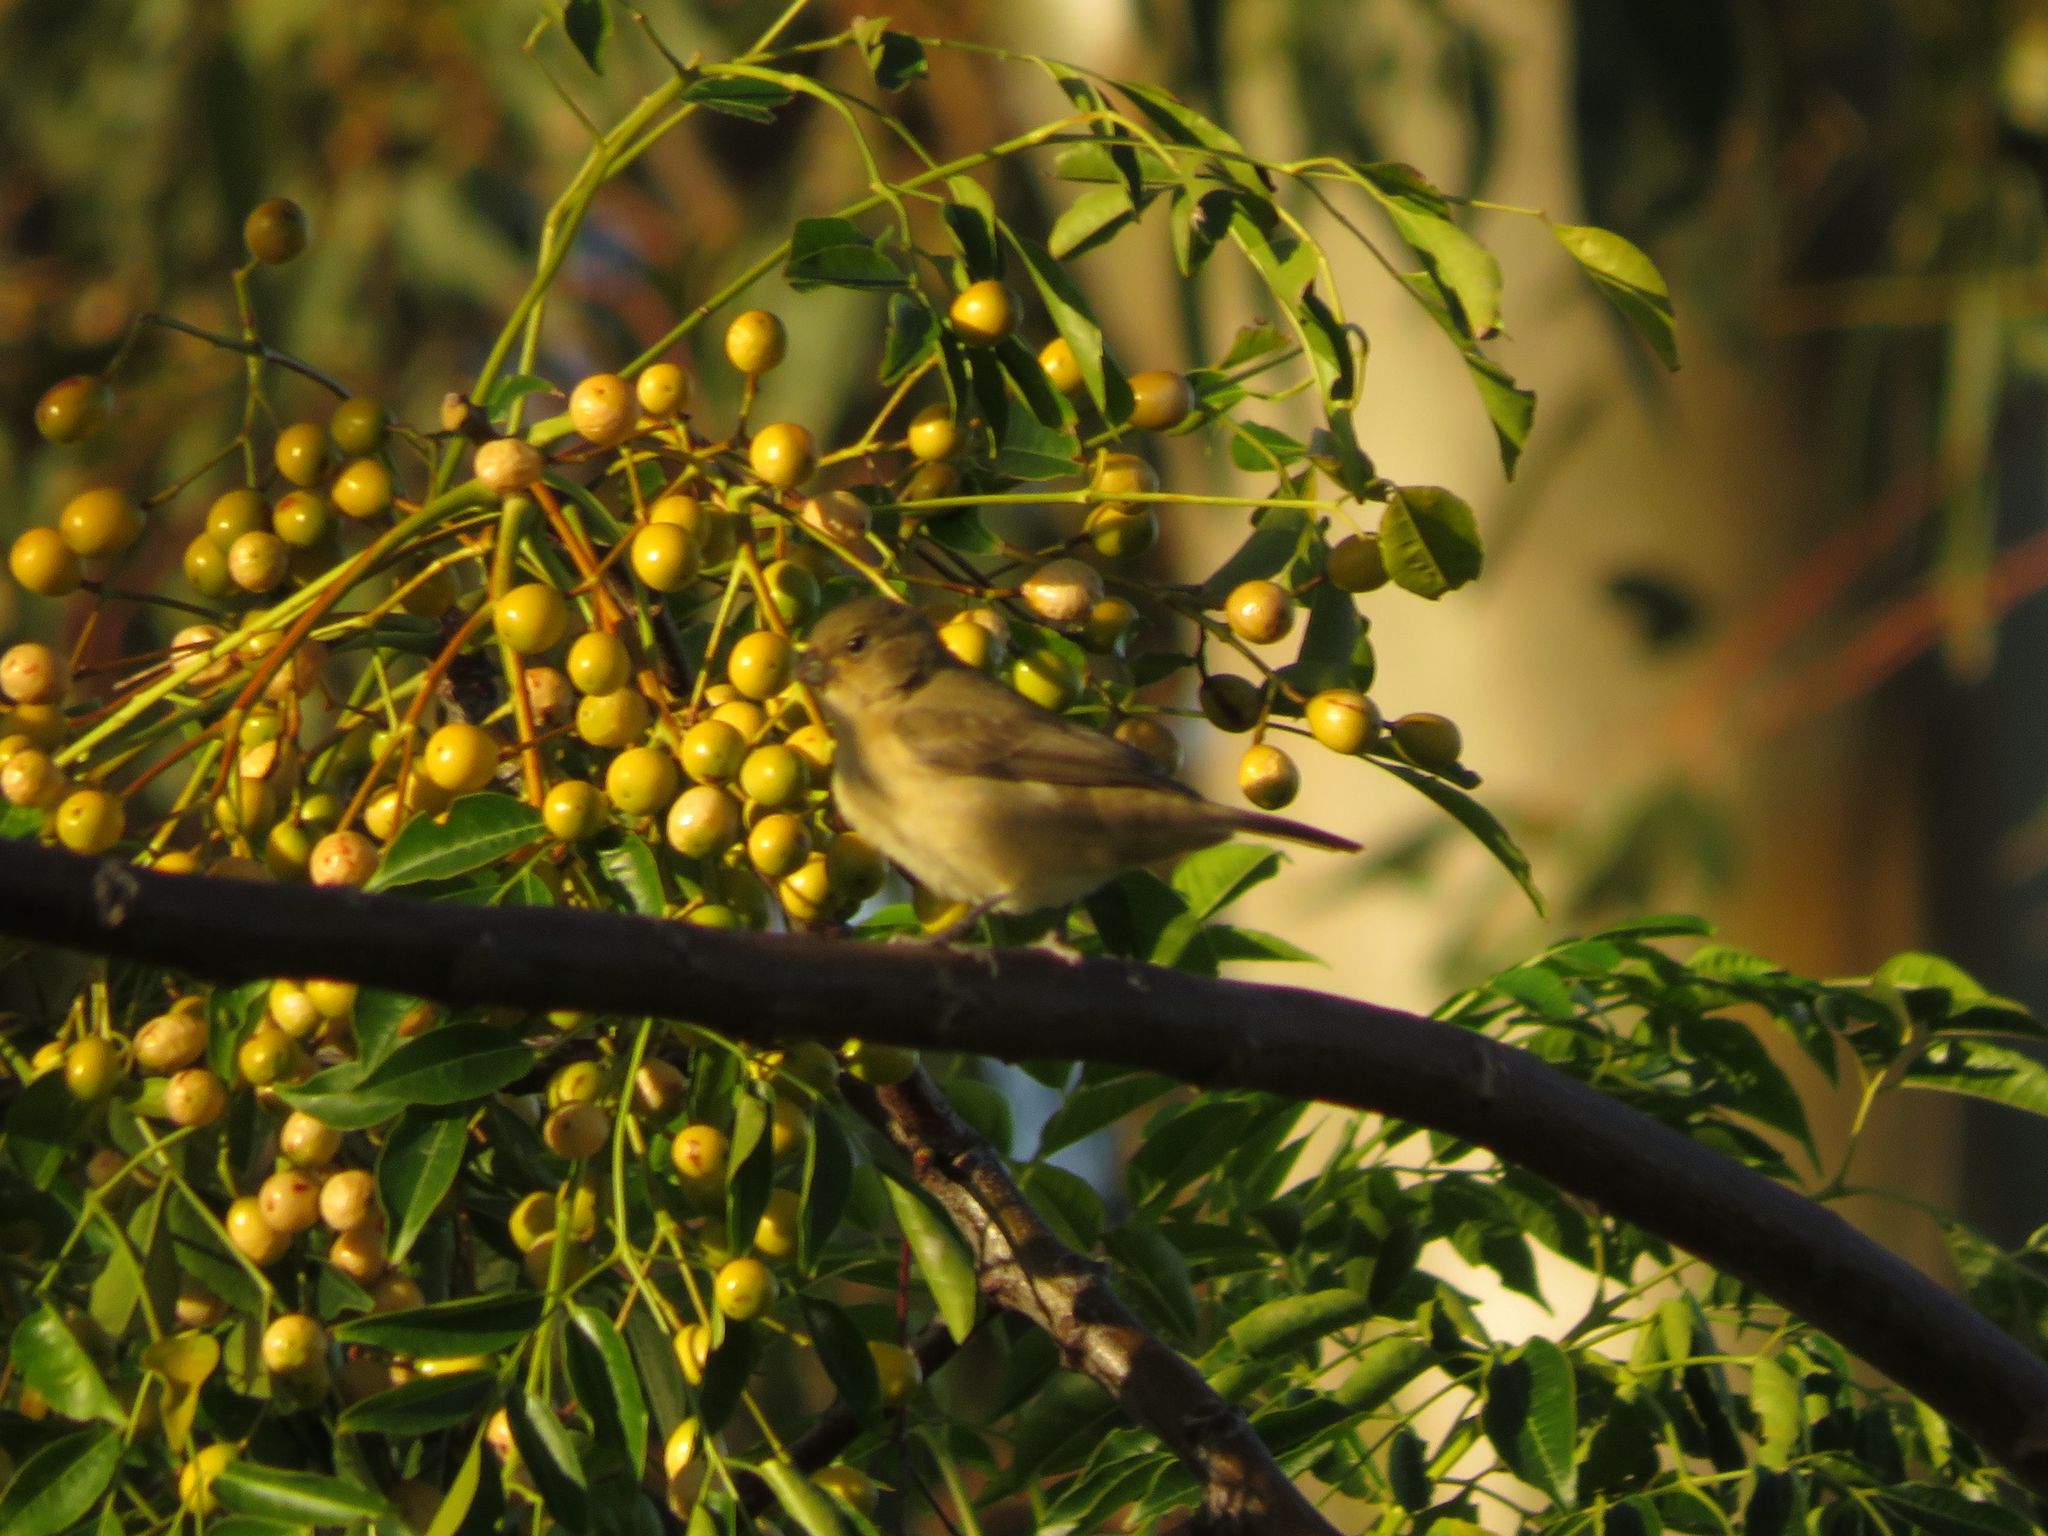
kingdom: Animalia
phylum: Chordata
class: Aves
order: Passeriformes
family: Thraupidae
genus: Sporophila
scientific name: Sporophila caerulescens
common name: Double-collared seedeater
